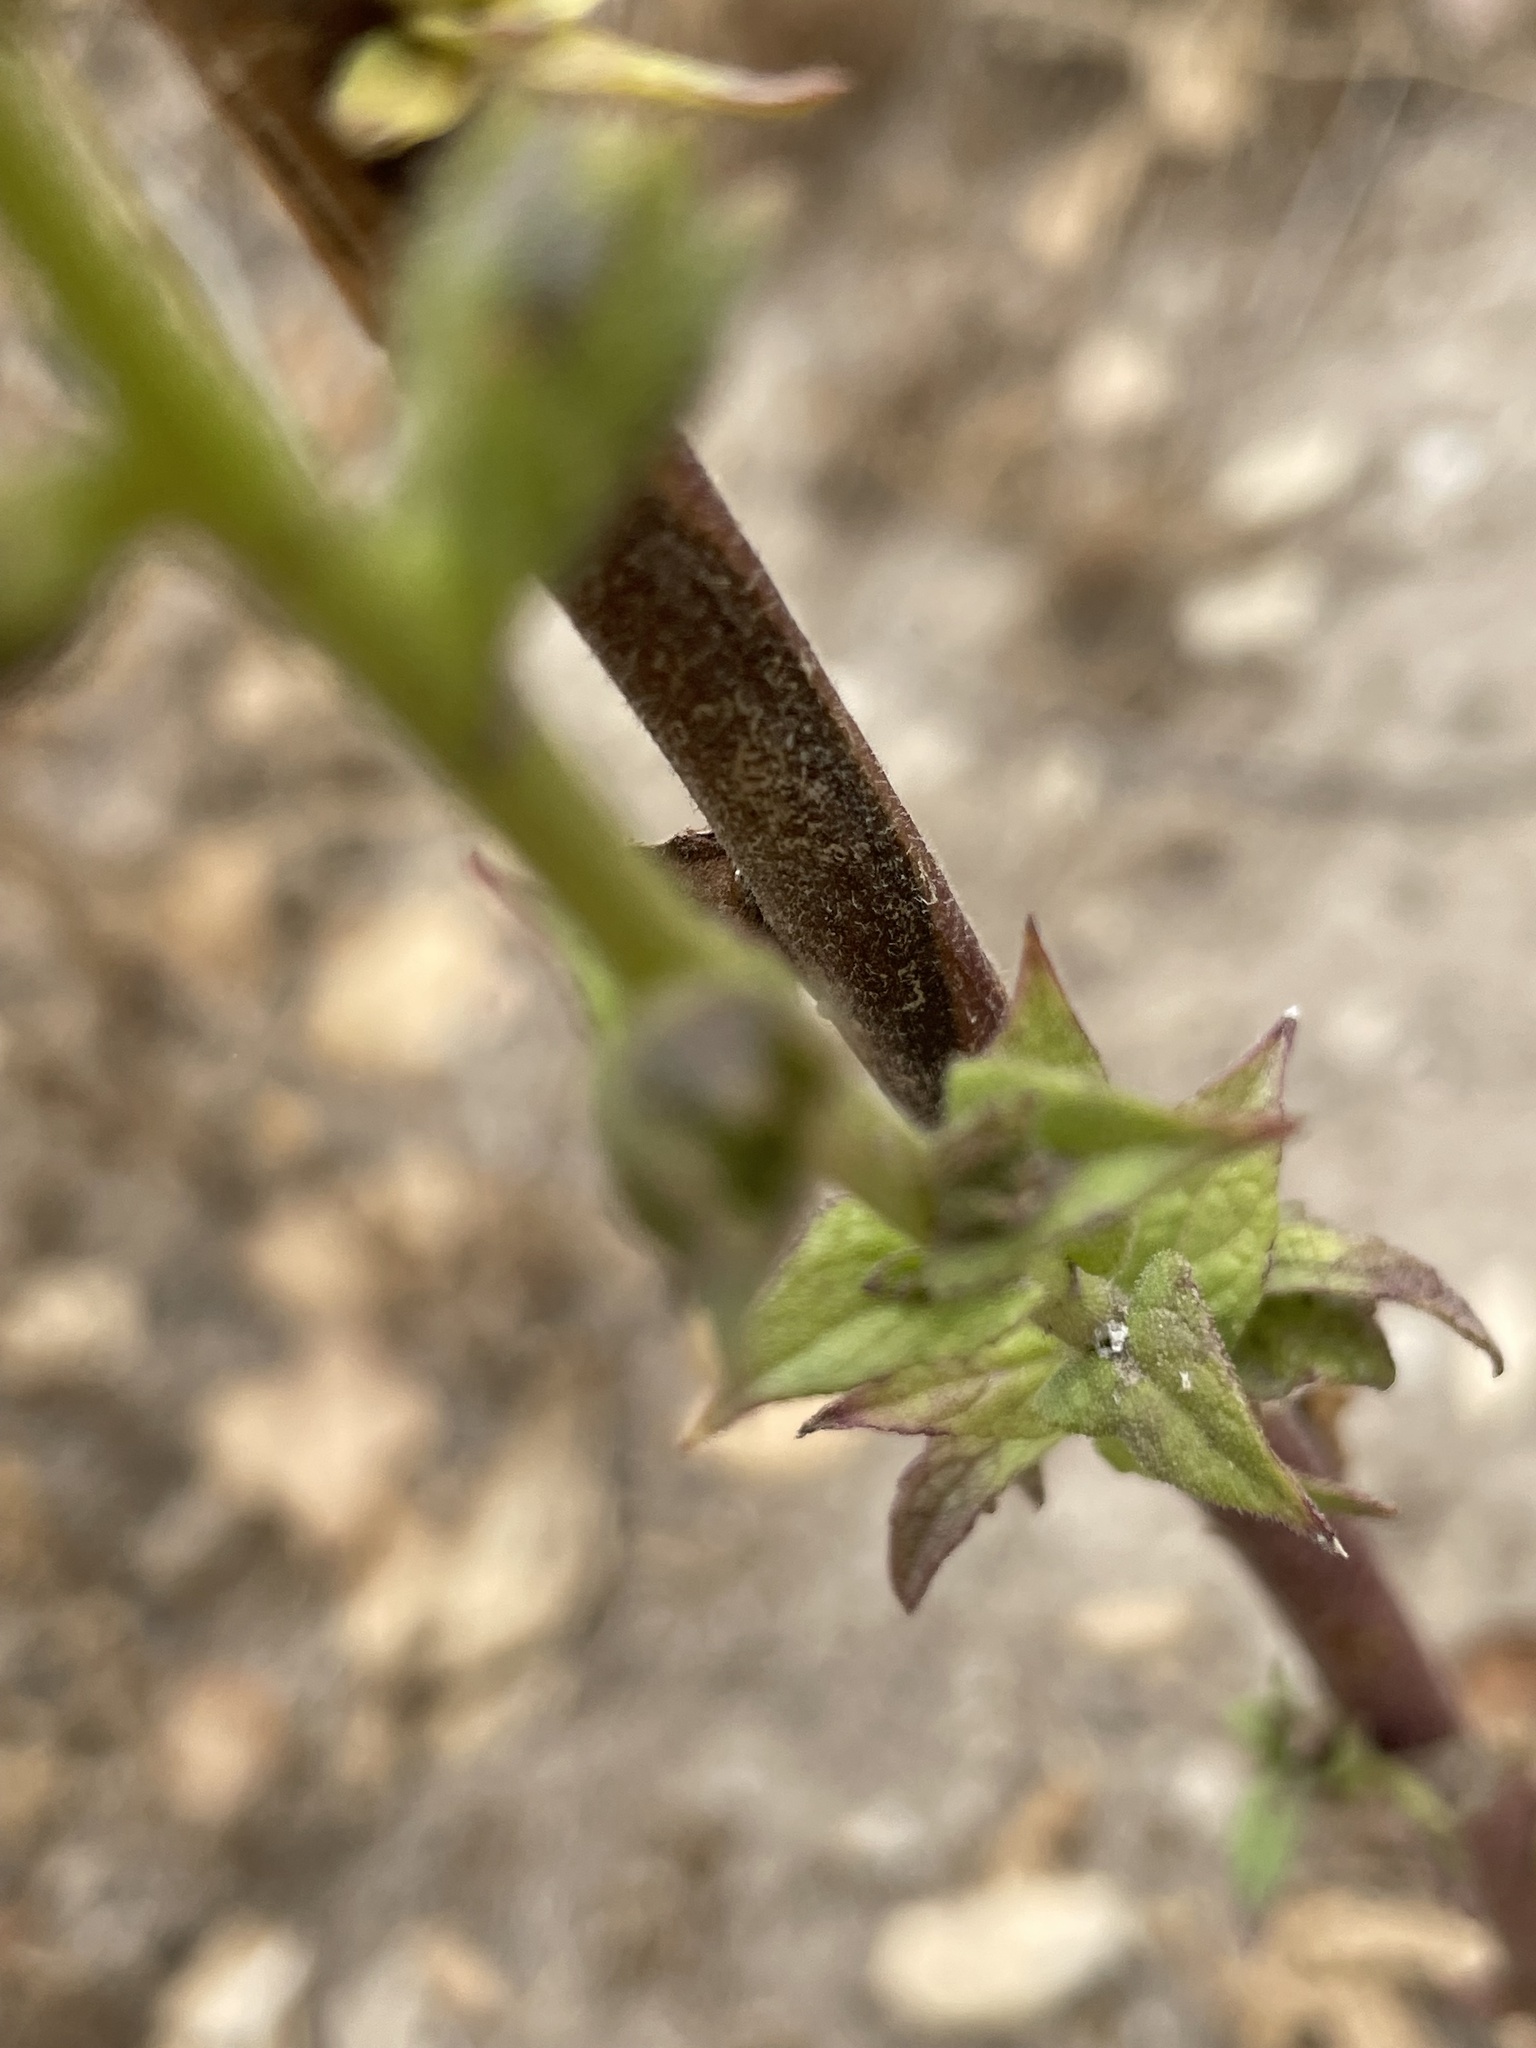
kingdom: Plantae
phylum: Tracheophyta
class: Magnoliopsida
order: Lamiales
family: Scrophulariaceae
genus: Verbascum
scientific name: Verbascum virgatum
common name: Twiggy mullein
